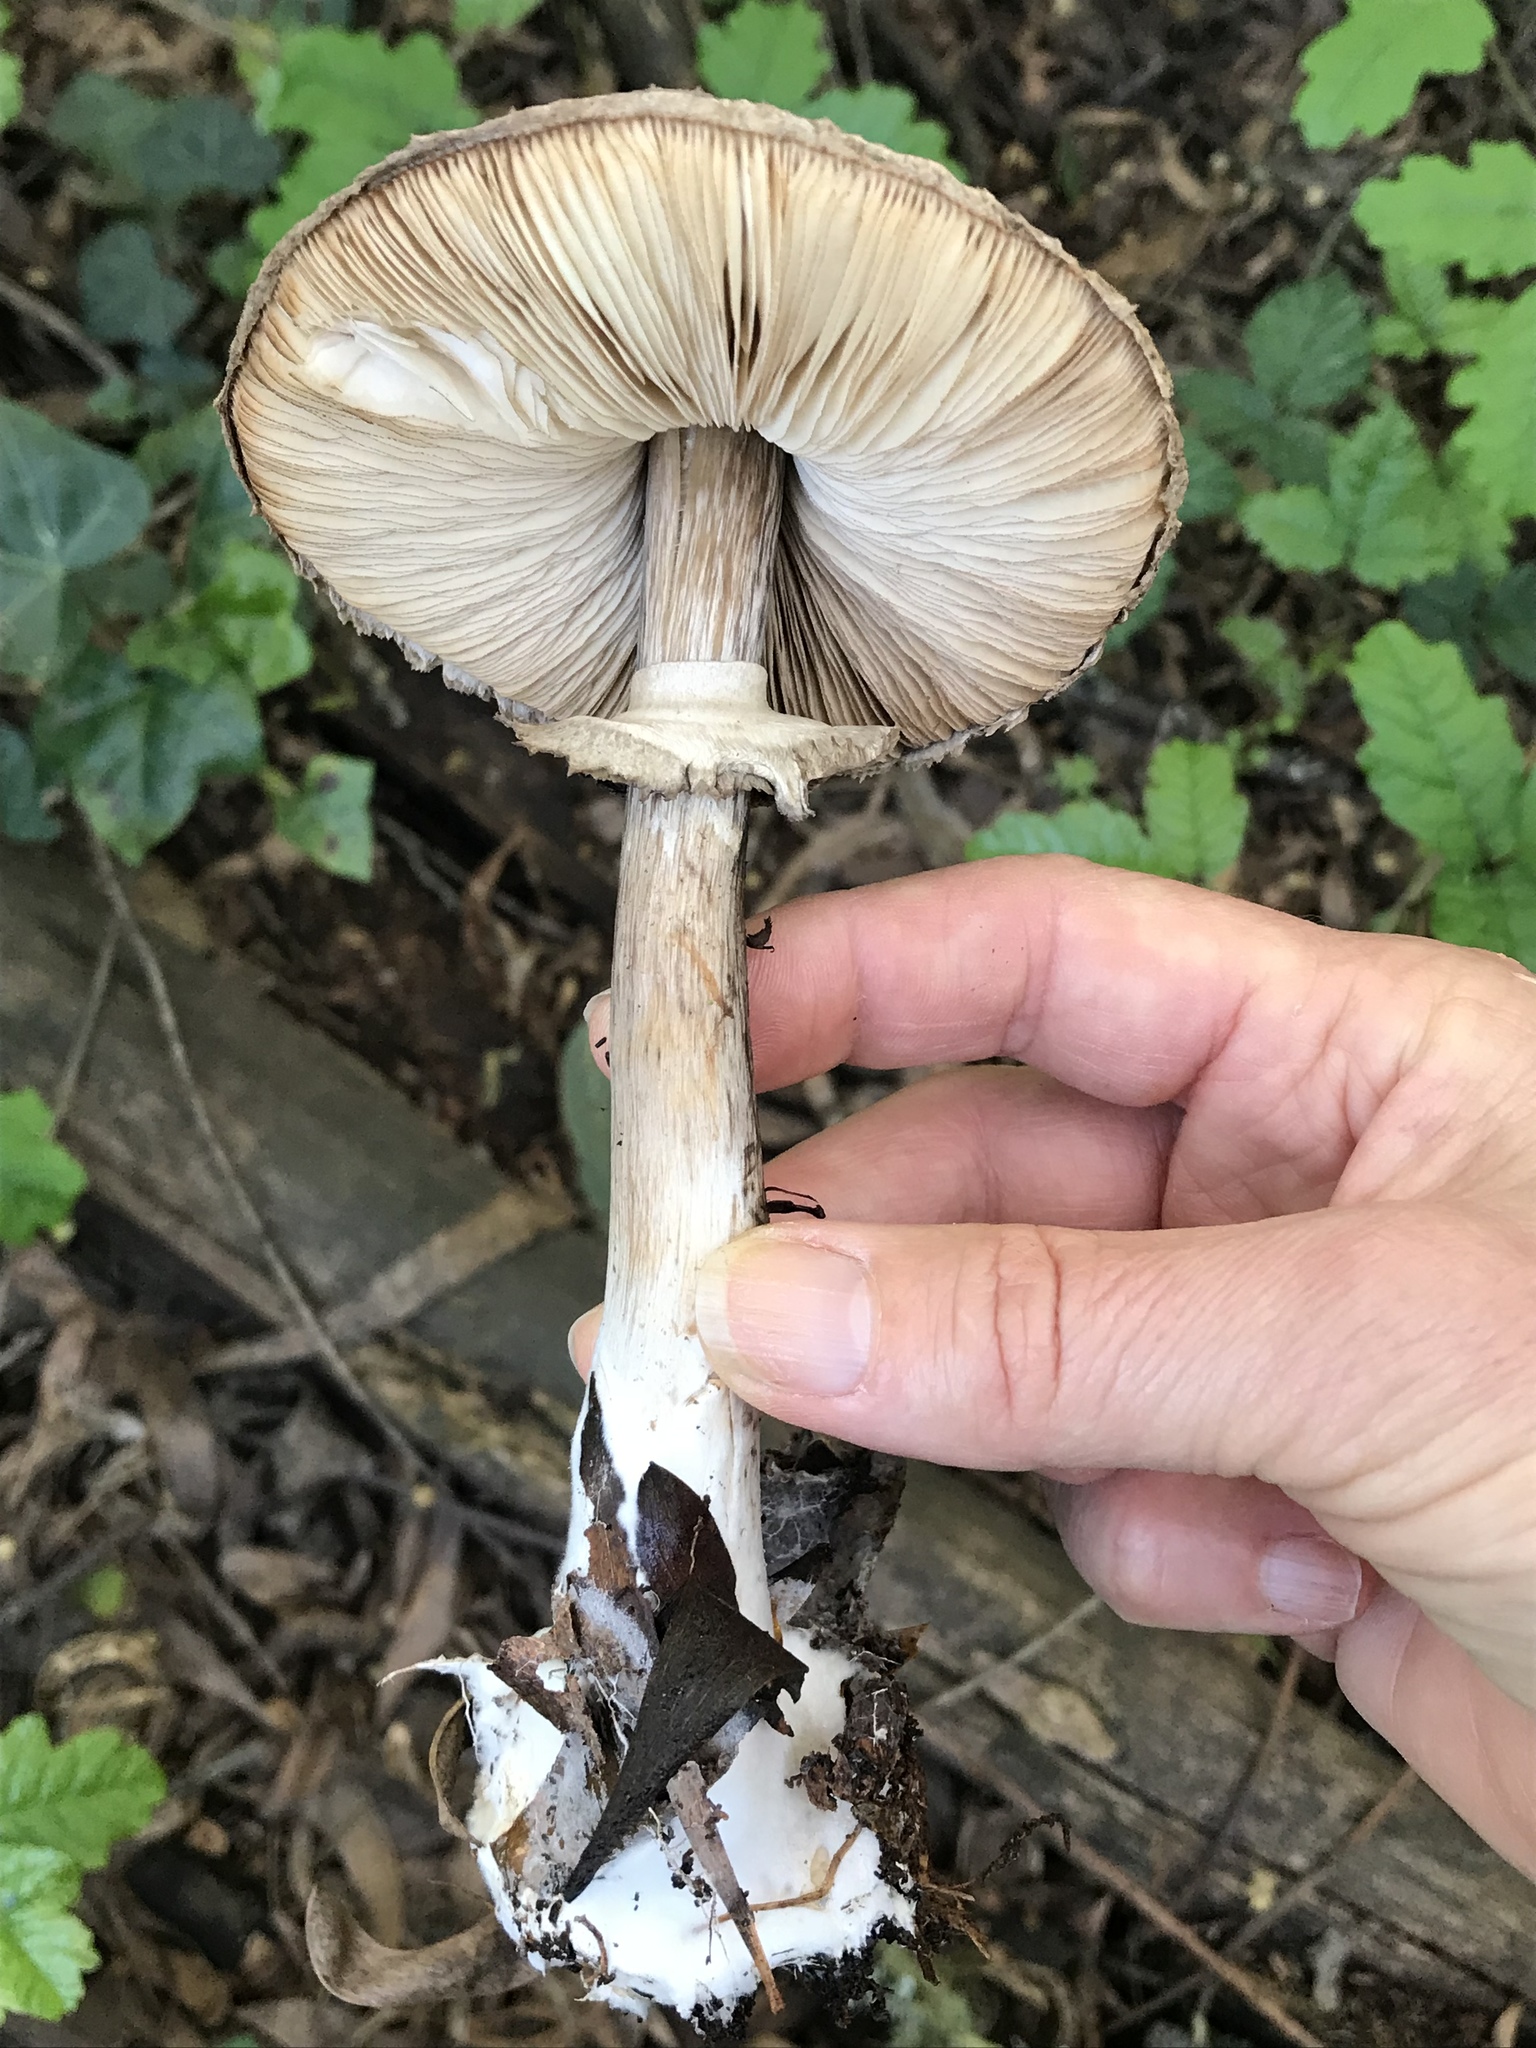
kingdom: Fungi
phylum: Basidiomycota
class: Agaricomycetes
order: Agaricales
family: Agaricaceae
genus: Chlorophyllum
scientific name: Chlorophyllum olivieri
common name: Conifer parasol
